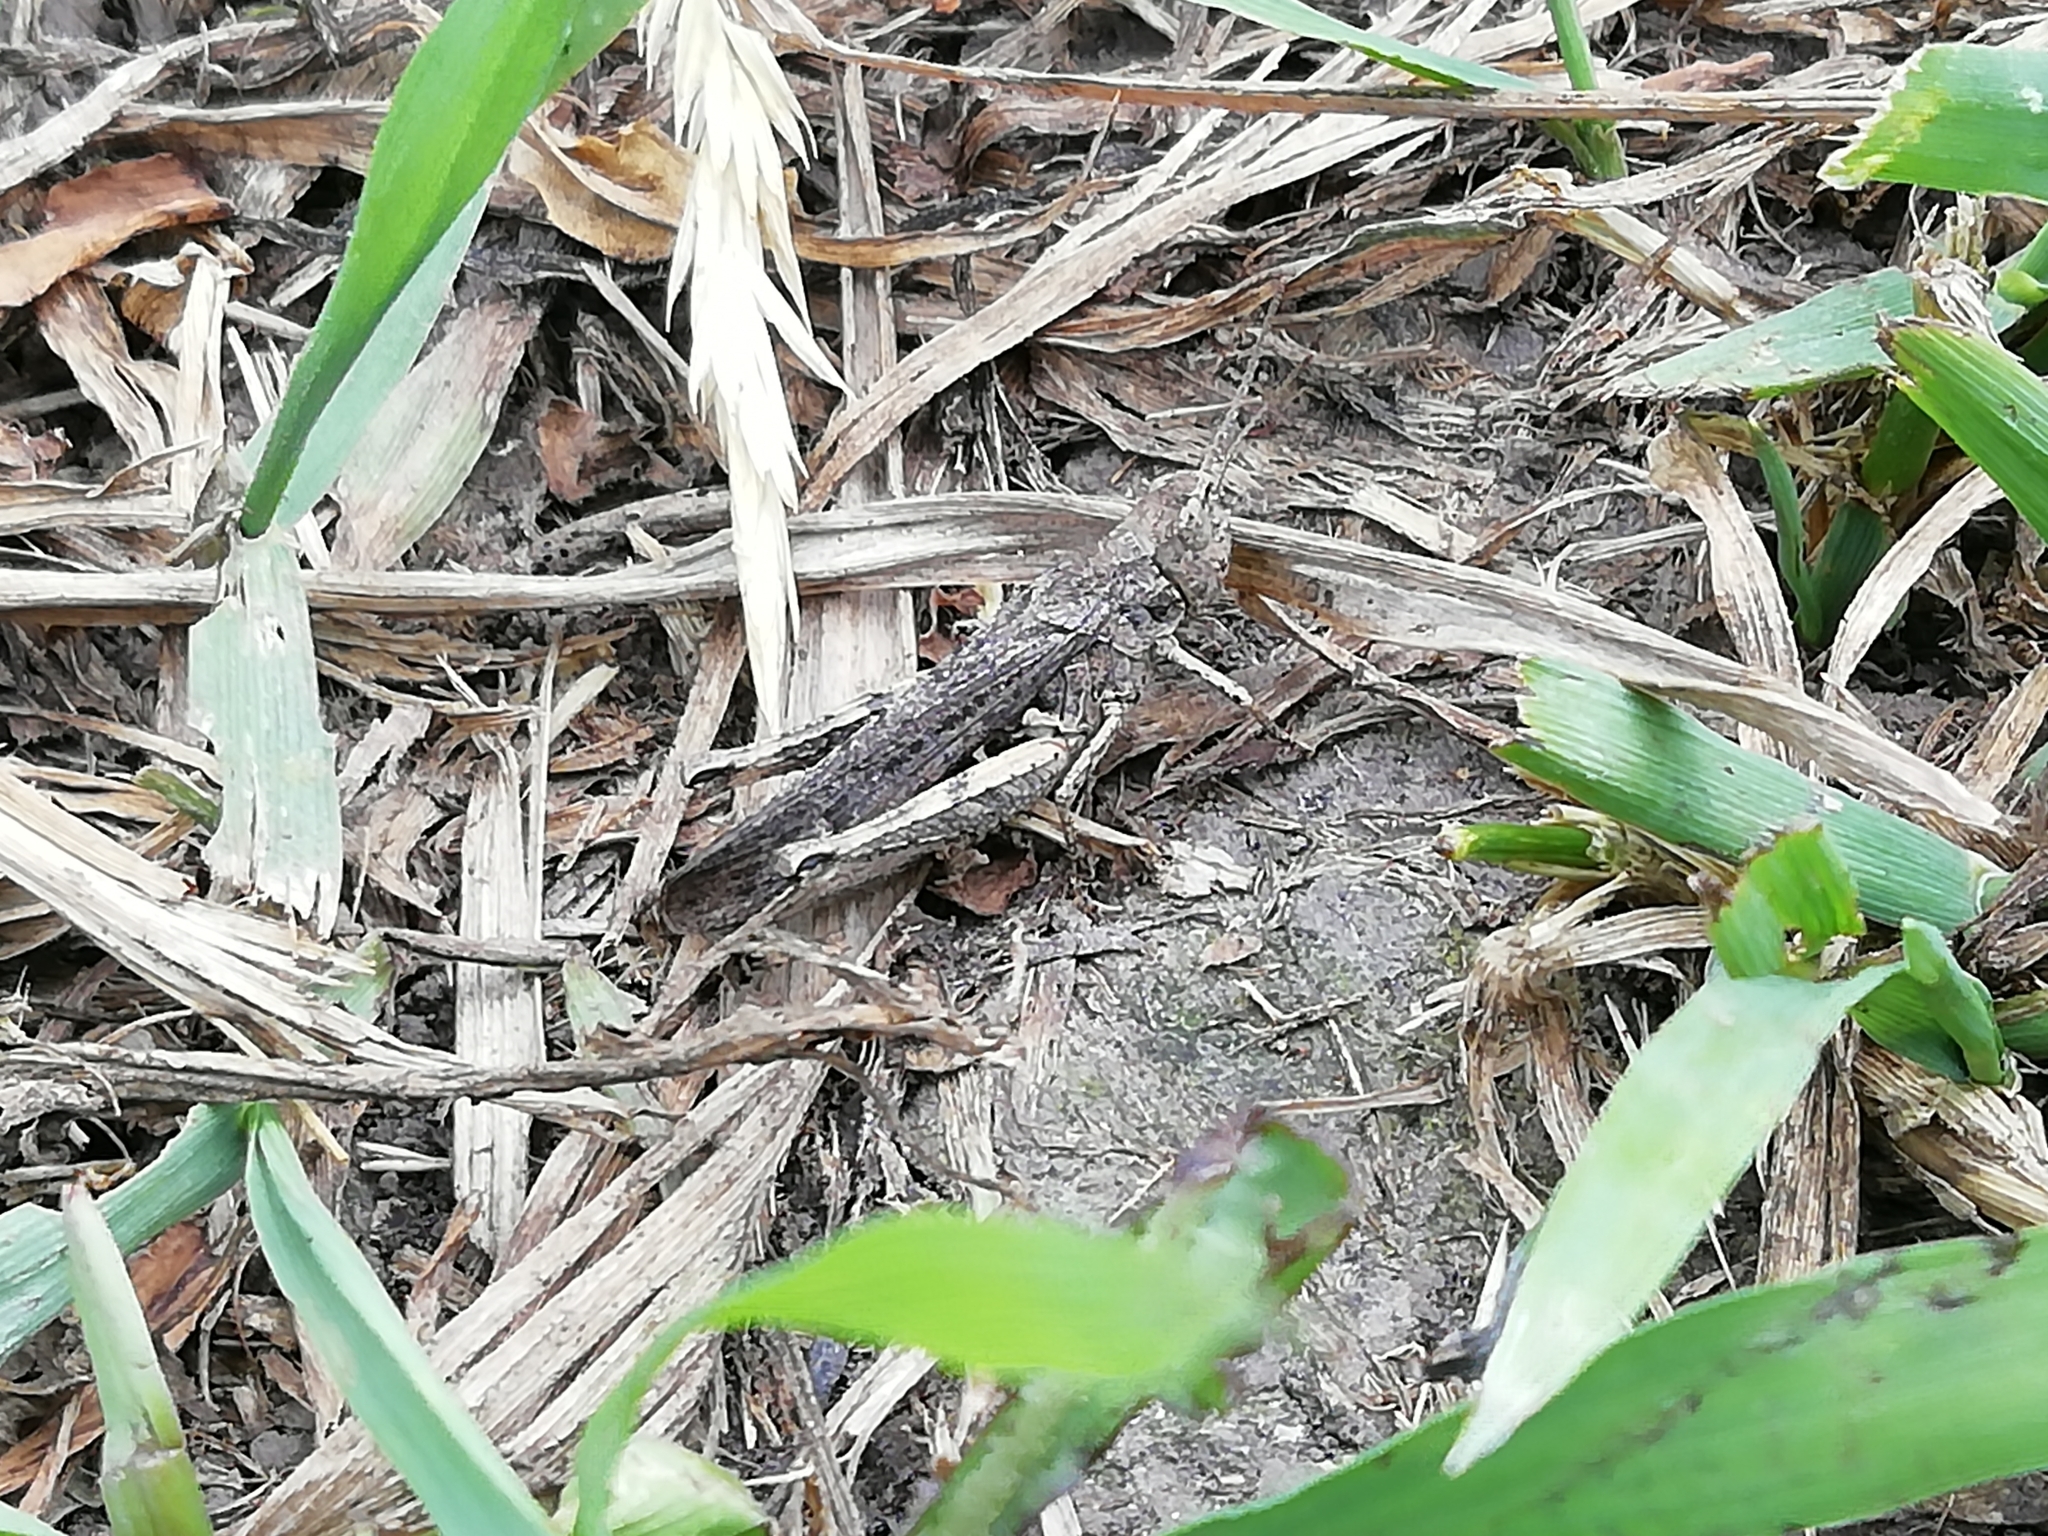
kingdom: Animalia
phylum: Arthropoda
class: Insecta
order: Orthoptera
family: Acrididae
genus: Chorthippus
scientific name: Chorthippus biguttulus
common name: Bow-winged grasshopper
